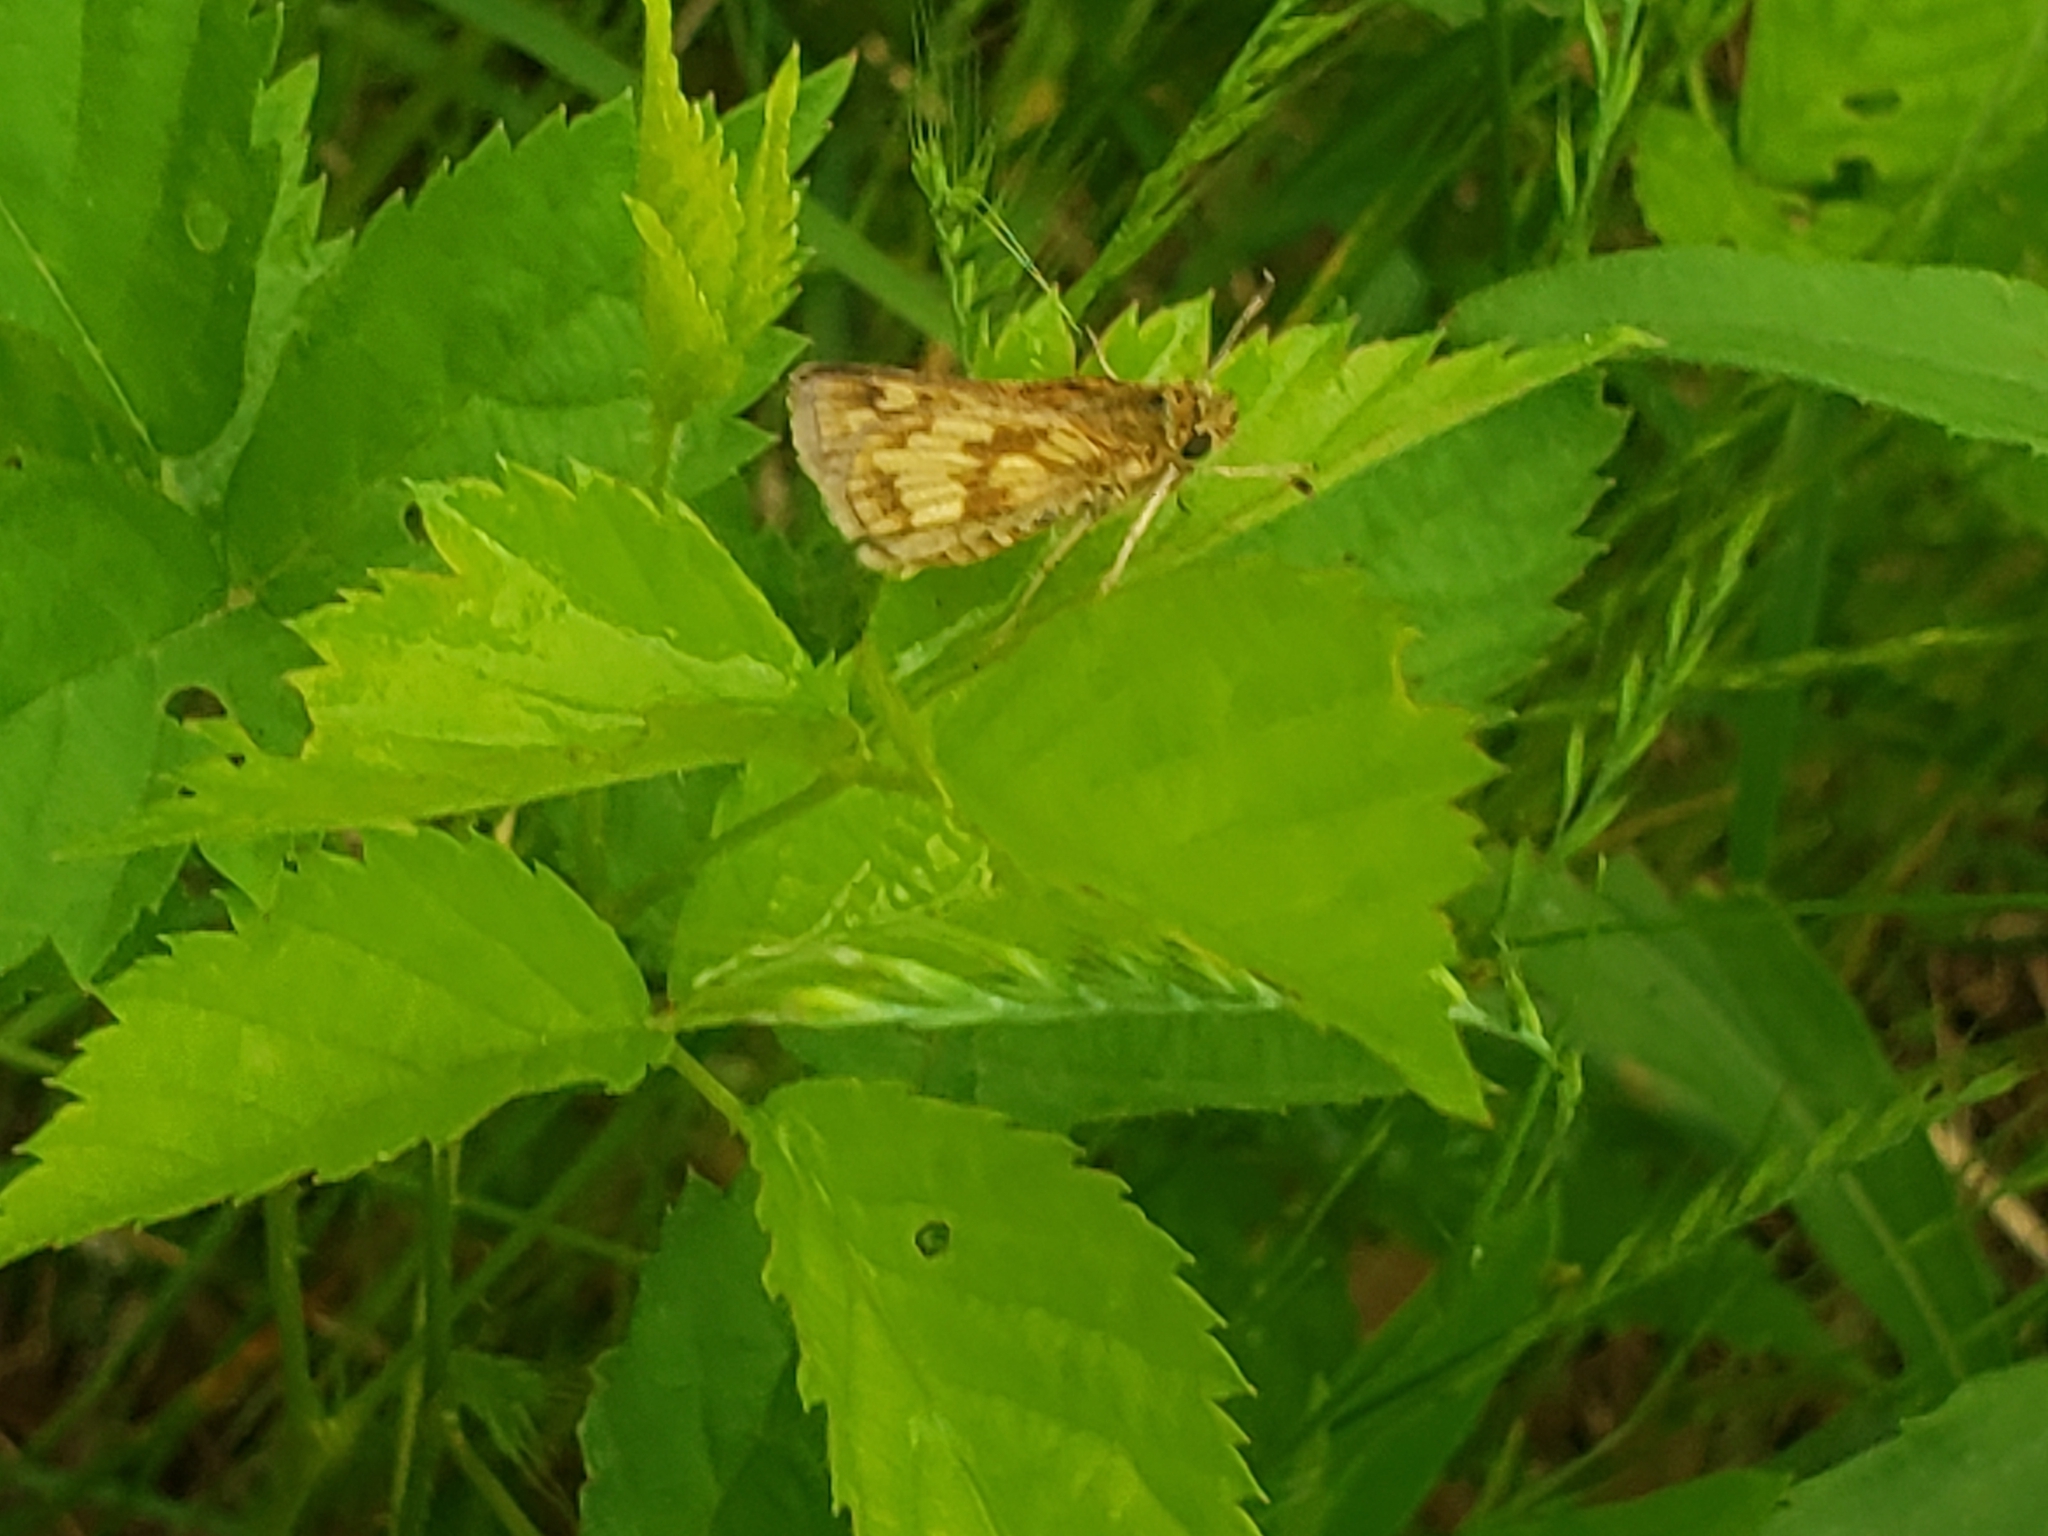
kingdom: Animalia
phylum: Arthropoda
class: Insecta
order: Lepidoptera
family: Hesperiidae
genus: Polites
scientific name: Polites coras
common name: Peck's skipper
